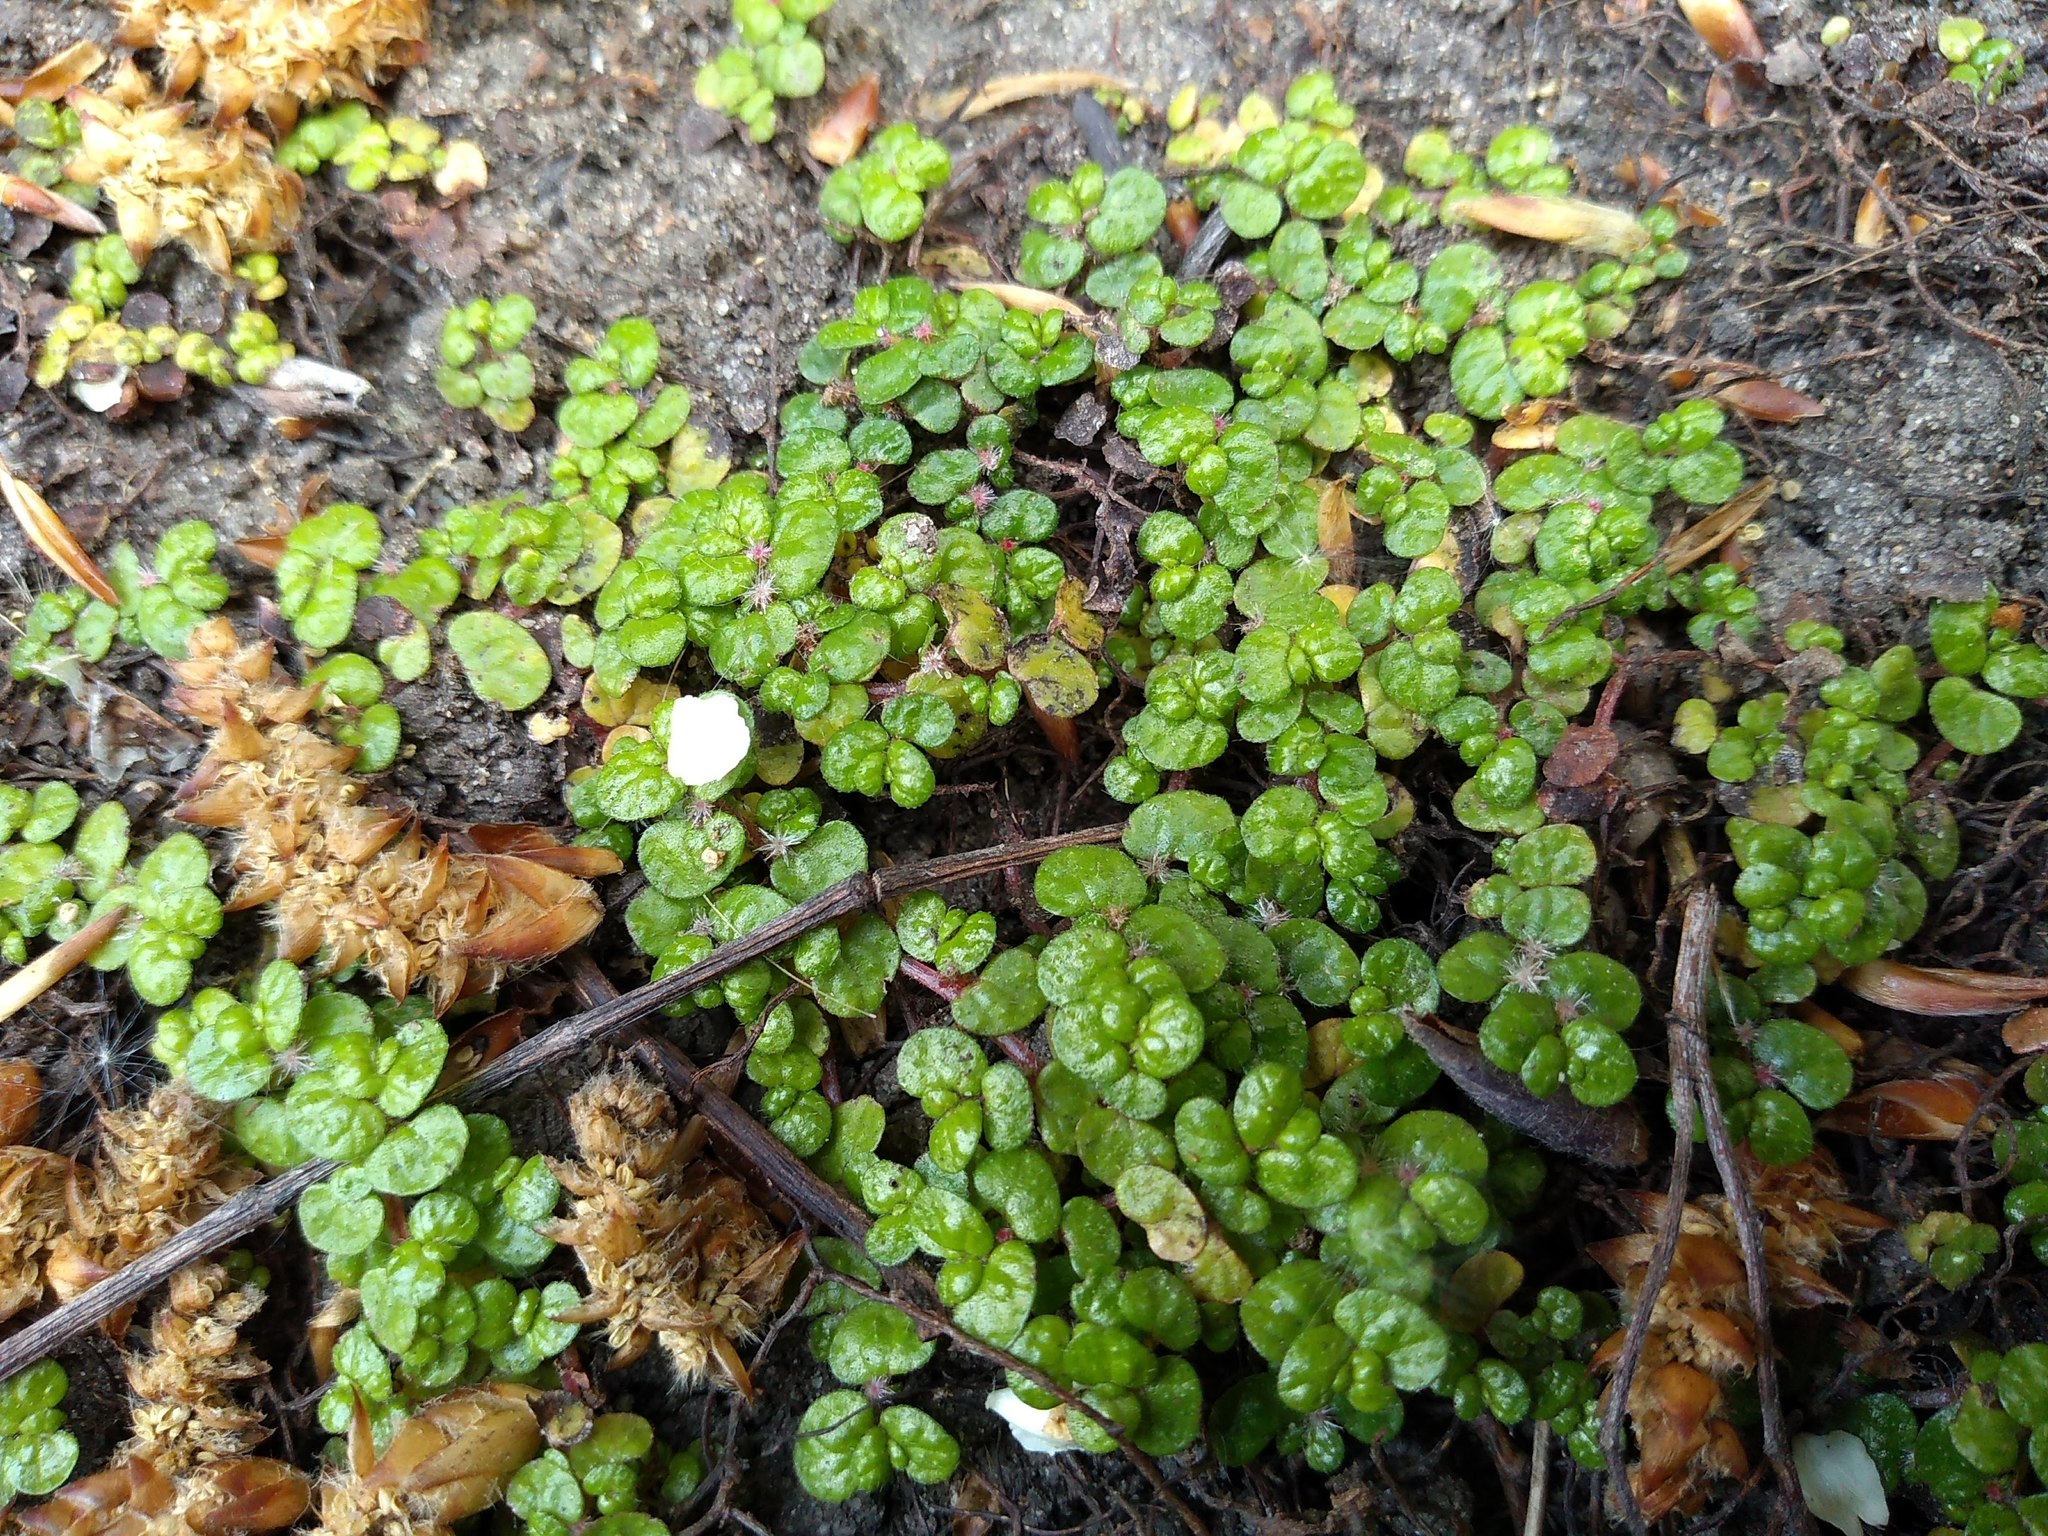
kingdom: Plantae
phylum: Tracheophyta
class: Magnoliopsida
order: Rosales
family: Urticaceae
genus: Soleirolia
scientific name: Soleirolia soleirolii
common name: Mind-your-own-business
